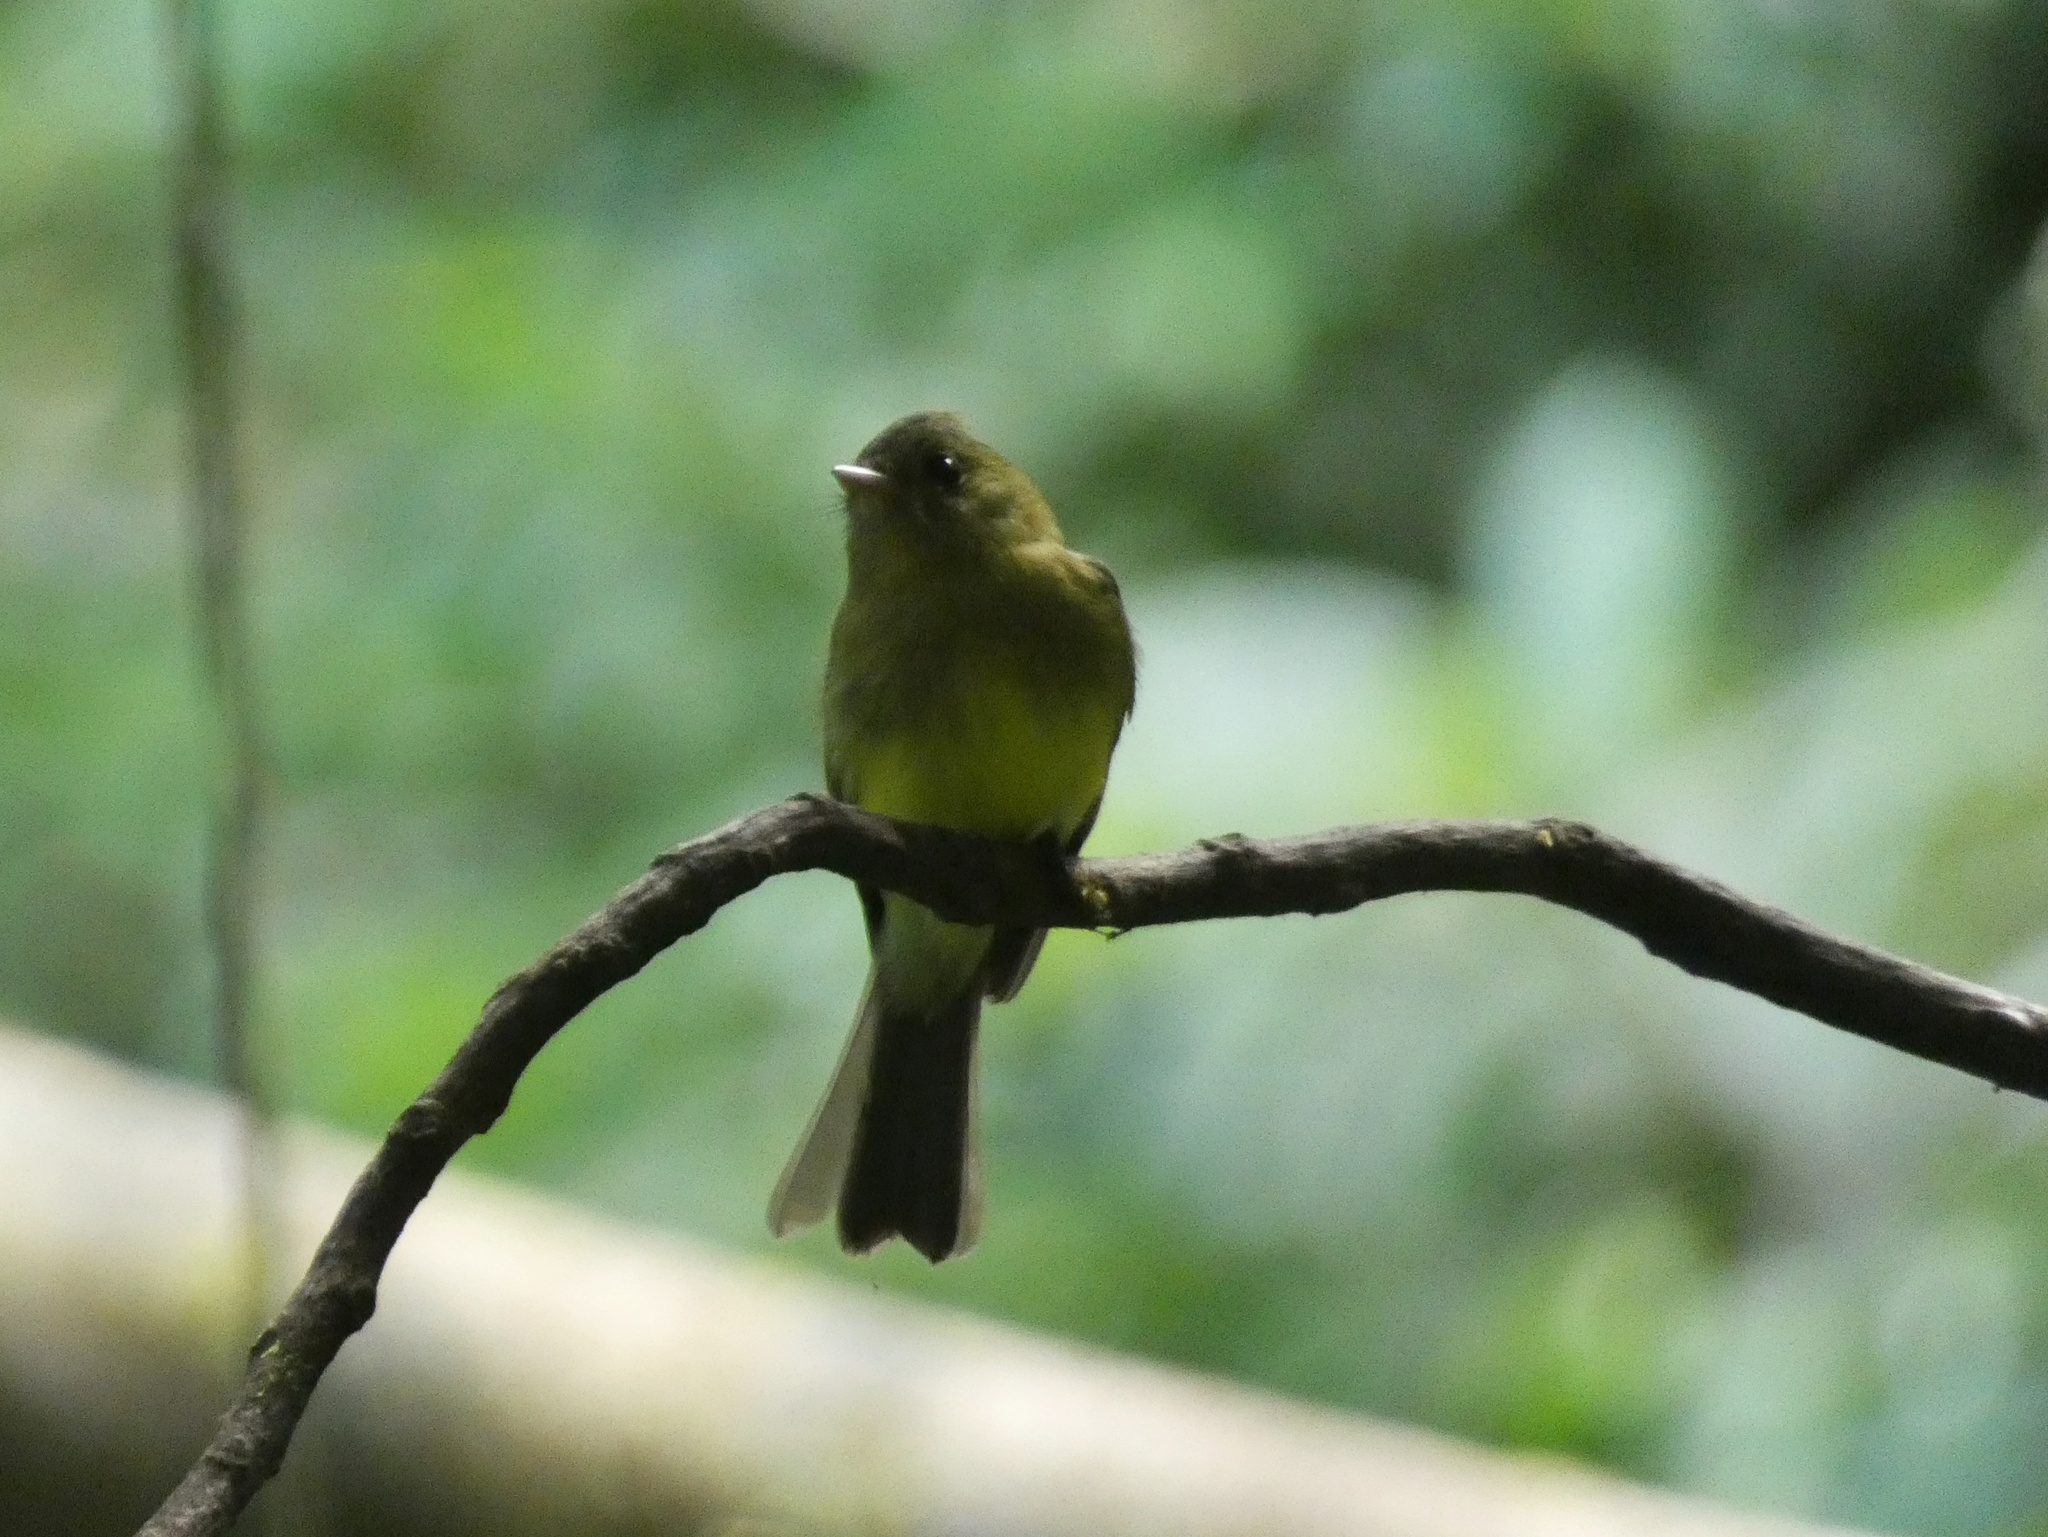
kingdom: Animalia
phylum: Chordata
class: Aves
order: Passeriformes
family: Tyrannidae
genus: Mitrephanes
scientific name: Mitrephanes phaeocercus
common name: Northern tufted flycatcher
